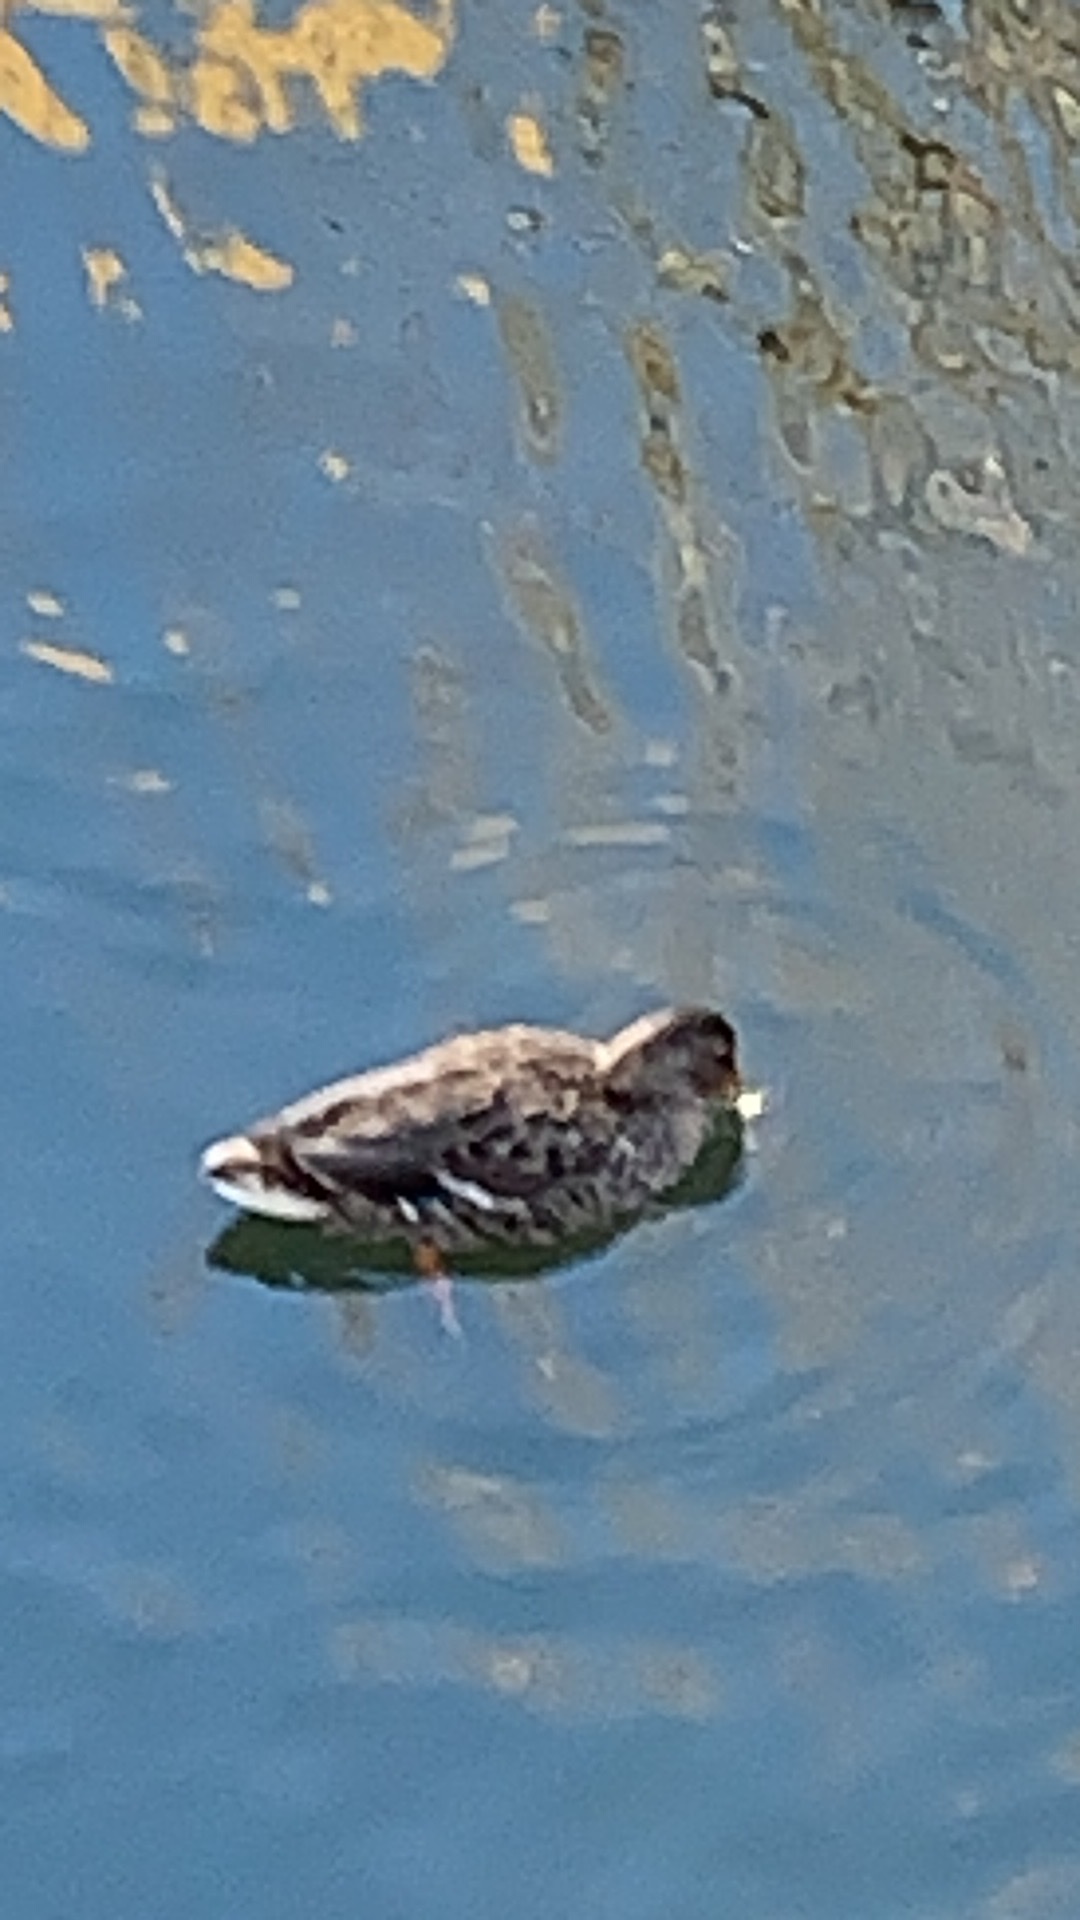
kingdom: Animalia
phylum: Chordata
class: Aves
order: Anseriformes
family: Anatidae
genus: Anas
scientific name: Anas platyrhynchos
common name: Mallard
